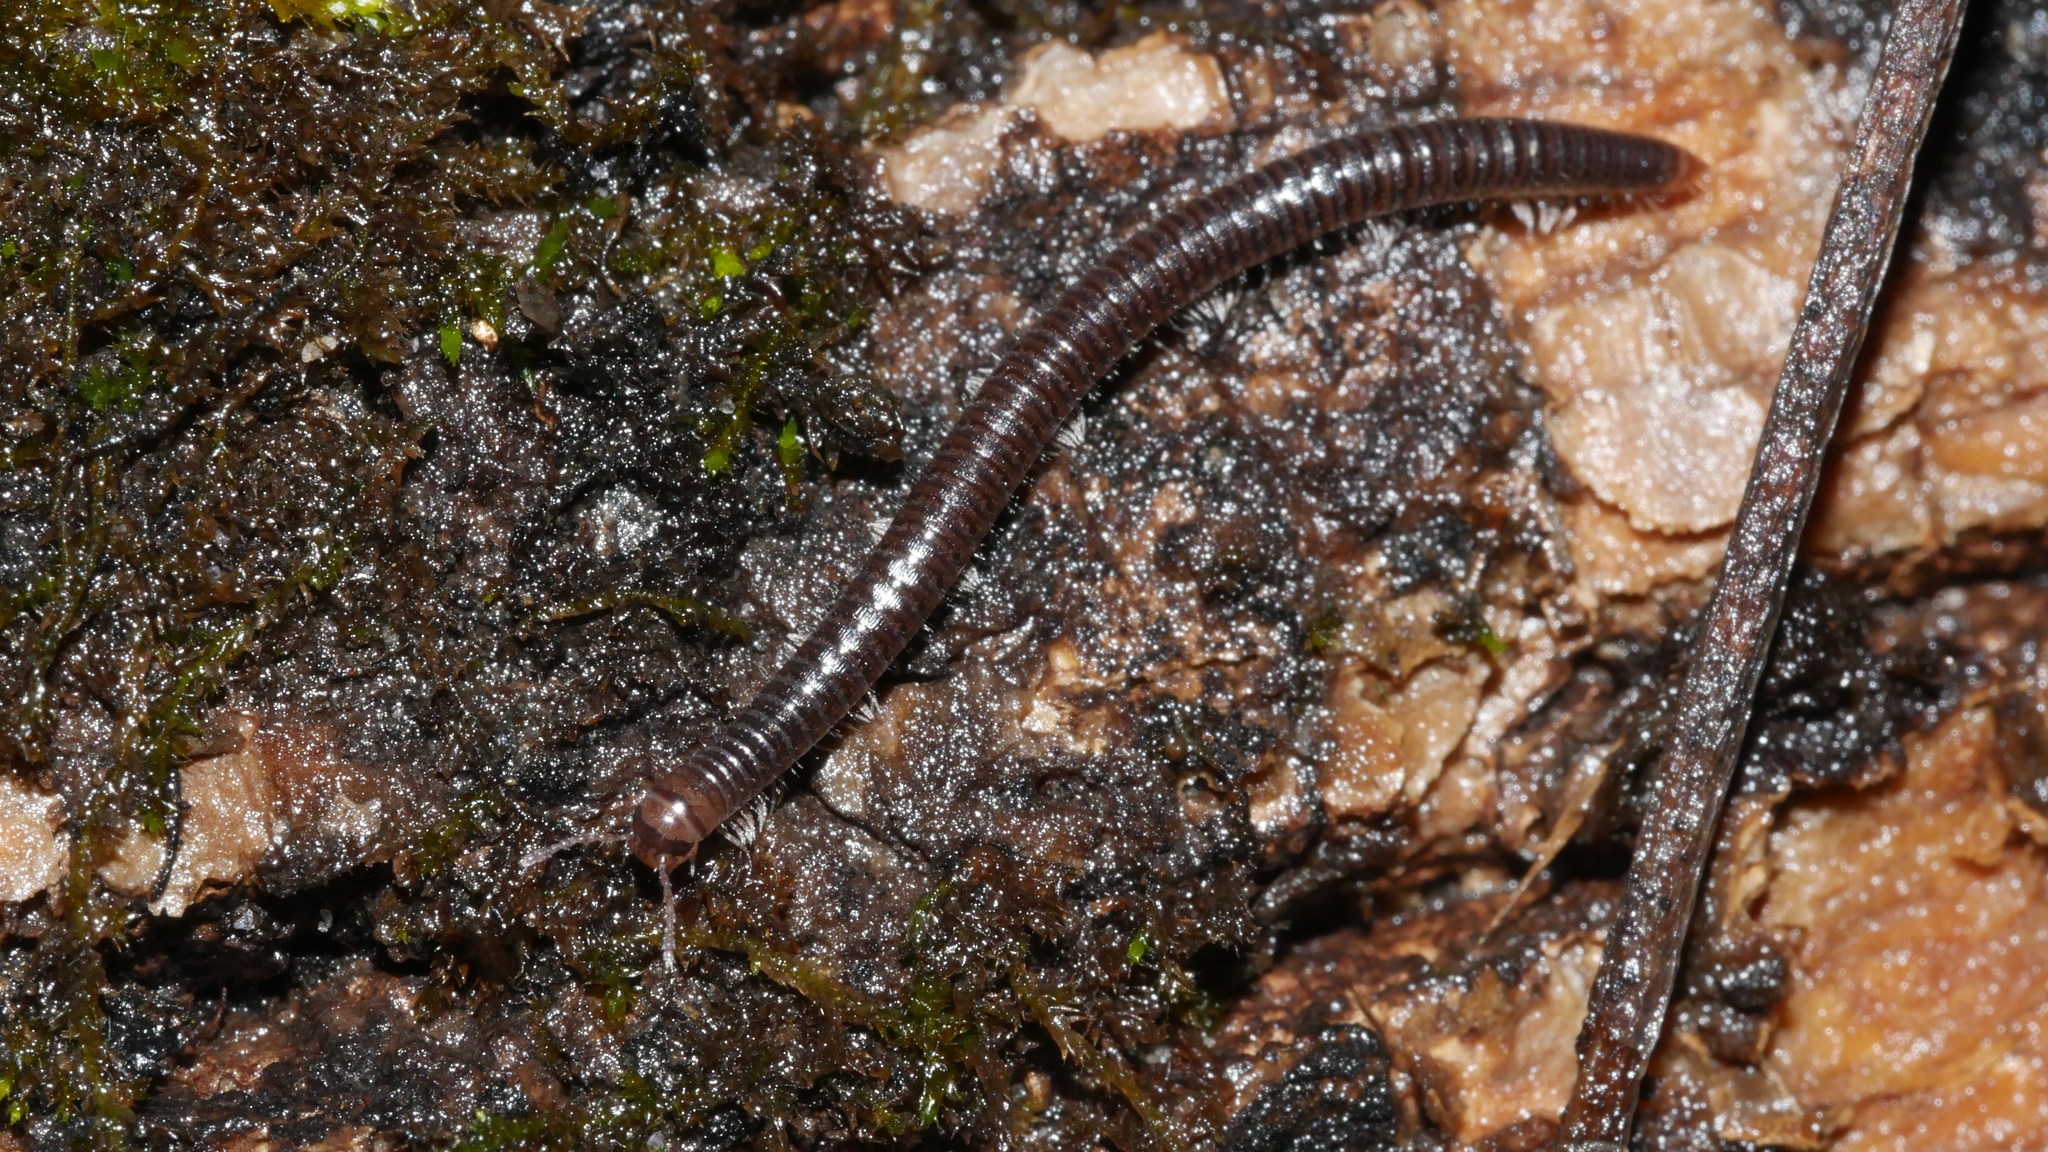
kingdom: Animalia
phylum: Arthropoda
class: Diplopoda
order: Julida
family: Julidae
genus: Ophyiulus
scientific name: Ophyiulus pilosus
